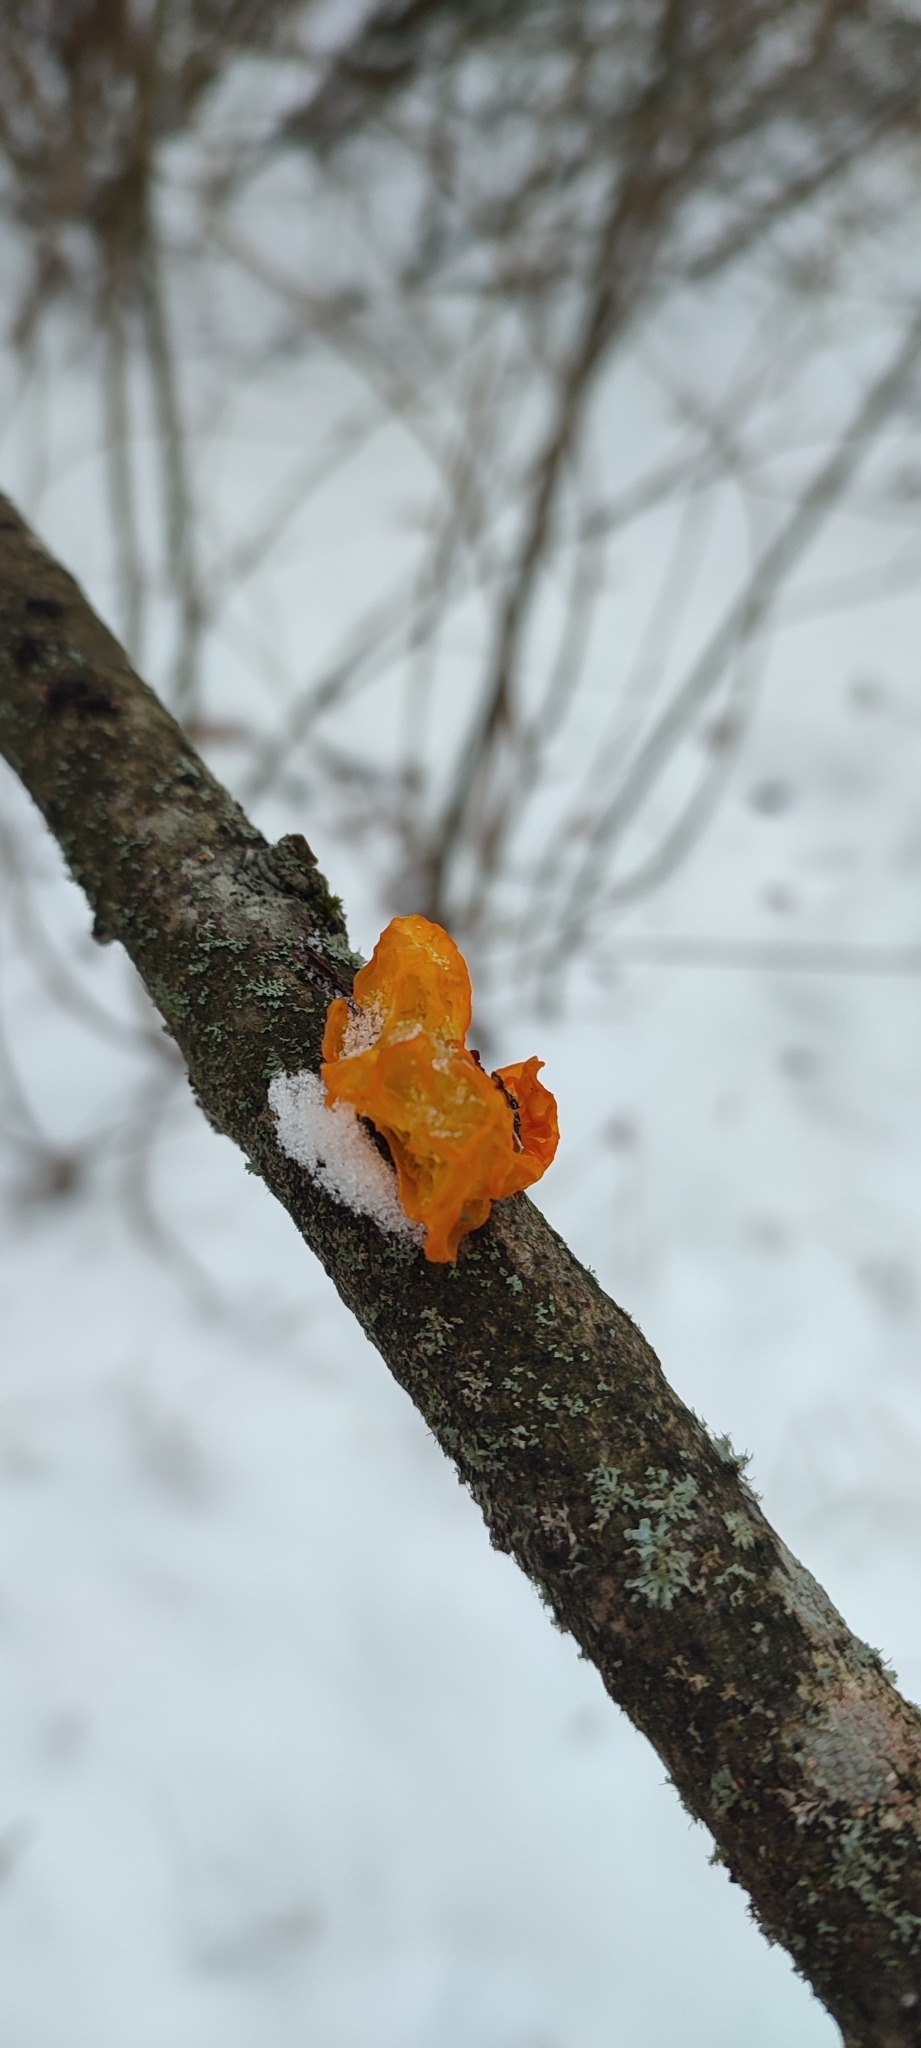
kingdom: Fungi
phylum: Basidiomycota
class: Tremellomycetes
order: Tremellales
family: Tremellaceae
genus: Tremella
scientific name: Tremella mesenterica
